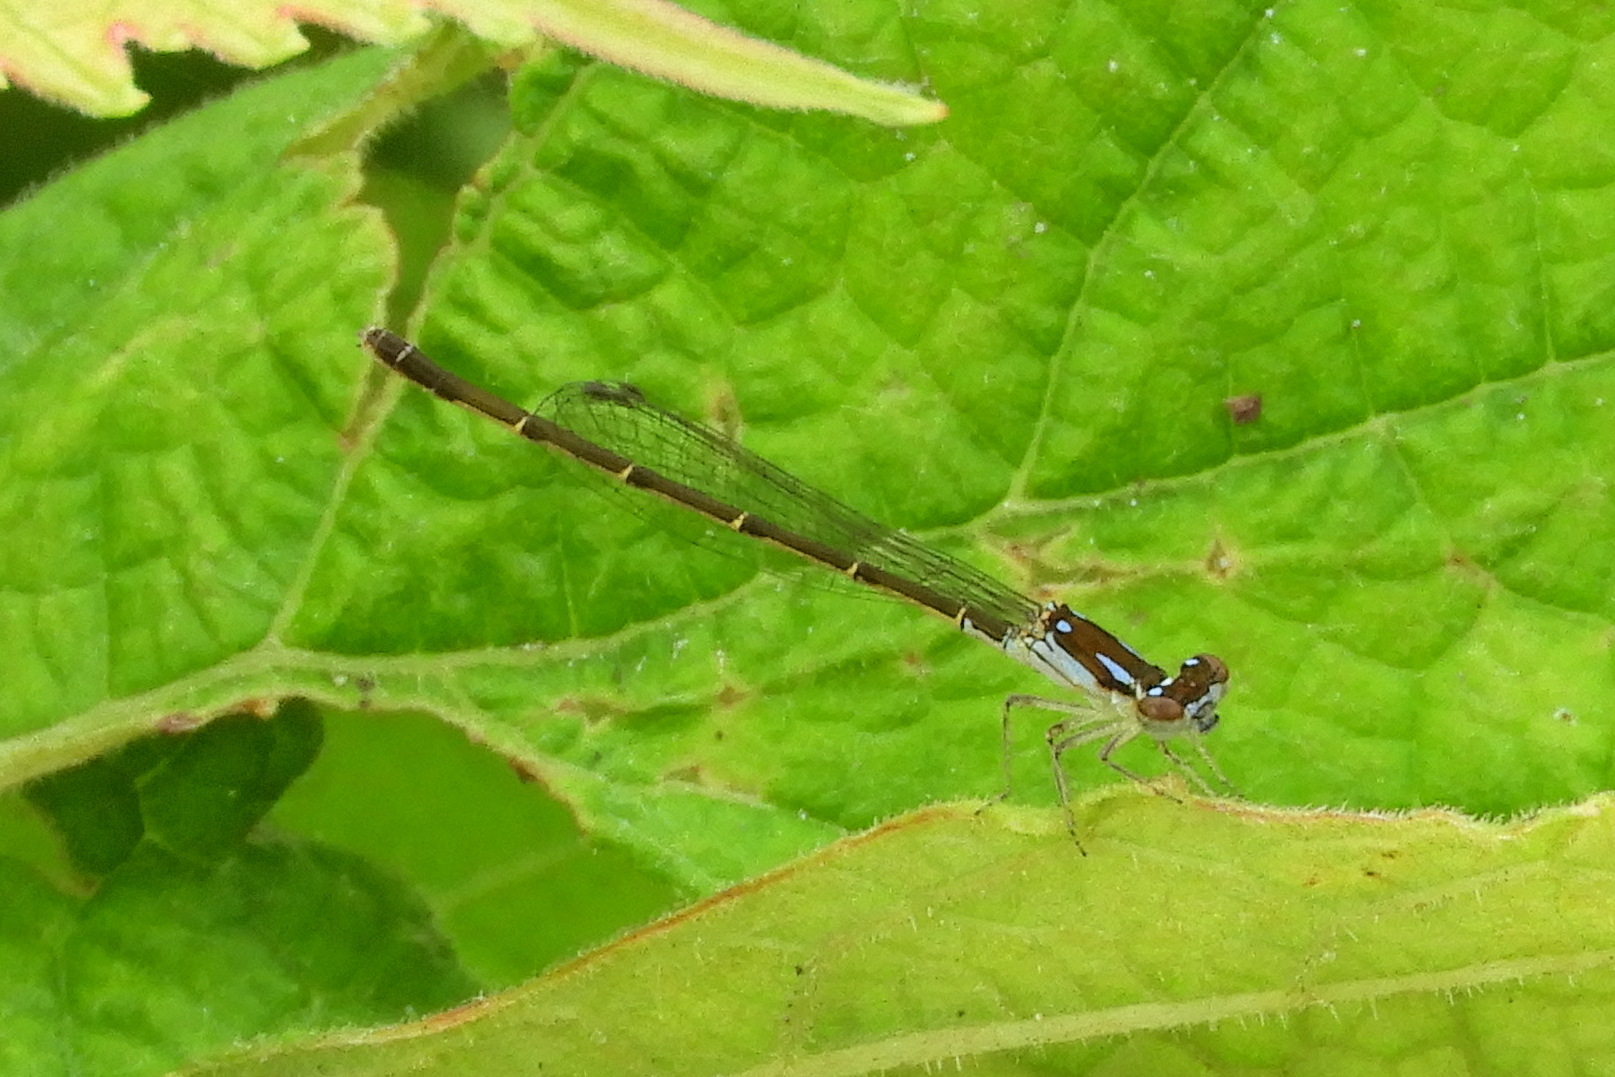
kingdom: Animalia
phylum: Arthropoda
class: Insecta
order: Odonata
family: Coenagrionidae
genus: Ischnura
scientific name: Ischnura posita
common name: Fragile forktail
